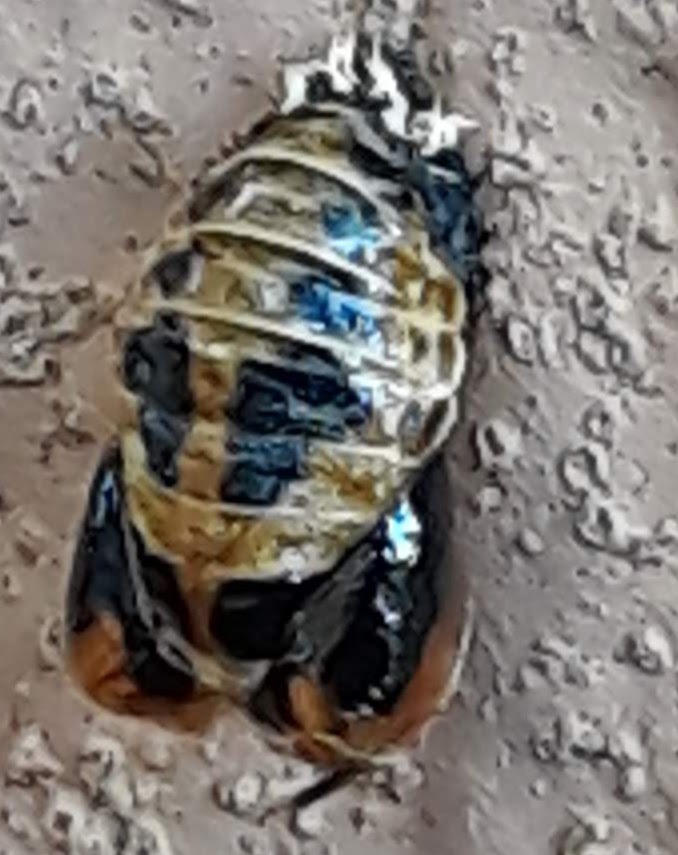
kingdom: Animalia
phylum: Arthropoda
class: Insecta
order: Coleoptera
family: Coccinellidae
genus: Harmonia
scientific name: Harmonia axyridis
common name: Harlequin ladybird
